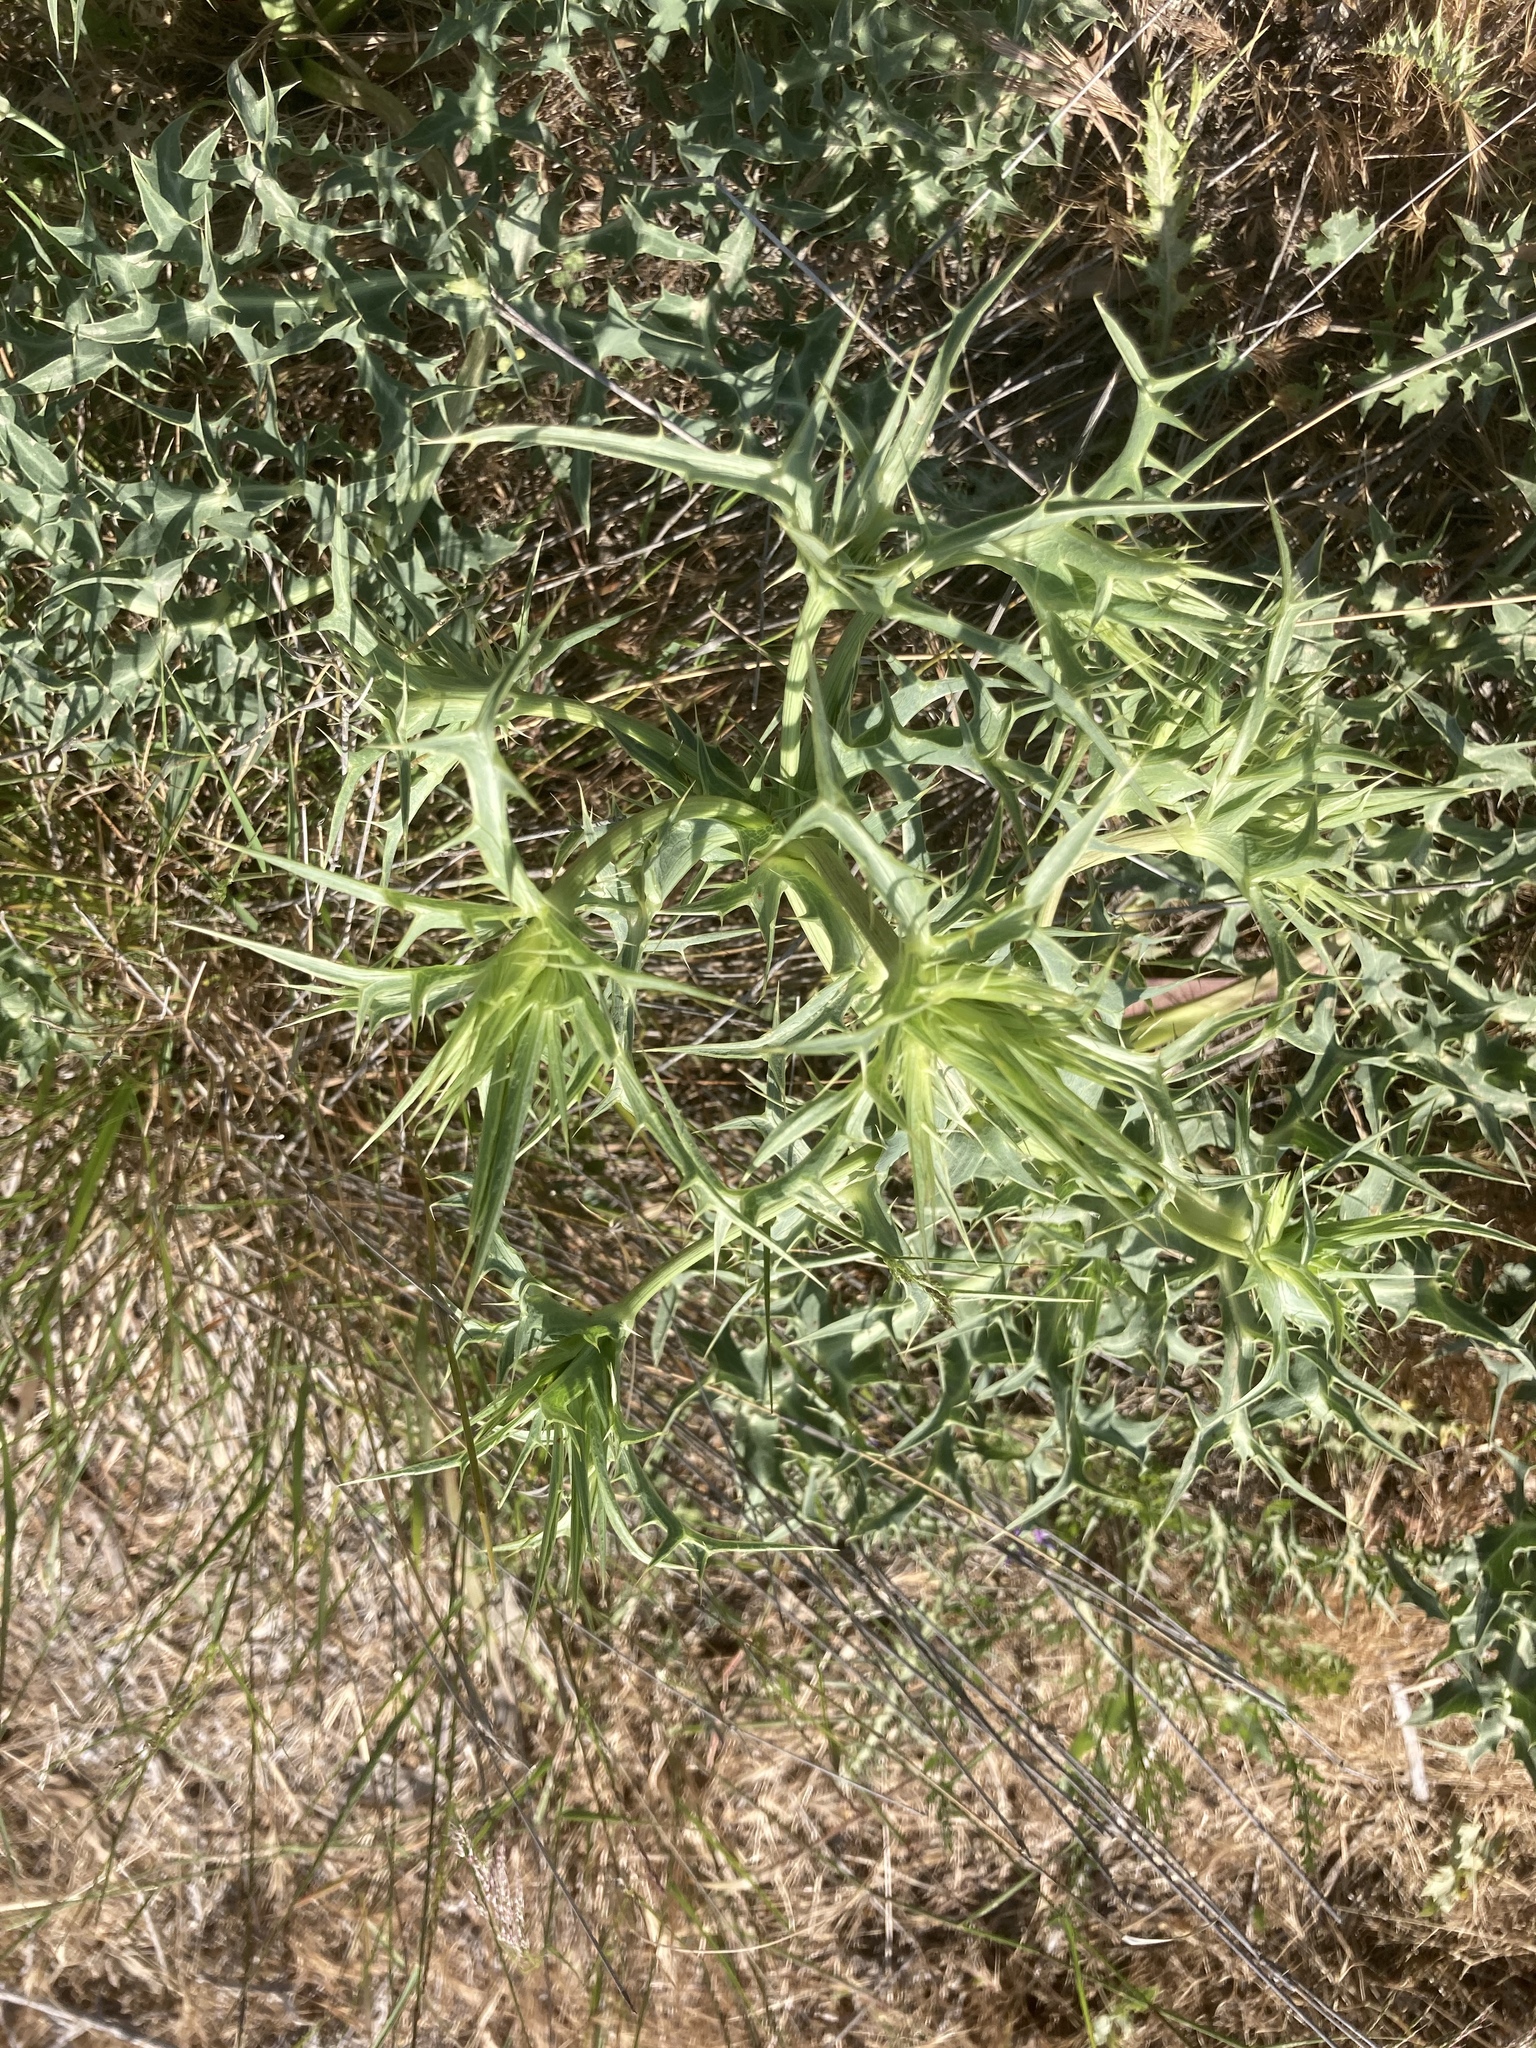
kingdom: Plantae
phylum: Tracheophyta
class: Magnoliopsida
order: Apiales
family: Apiaceae
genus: Eryngium
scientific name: Eryngium campestre
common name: Field eryngo
